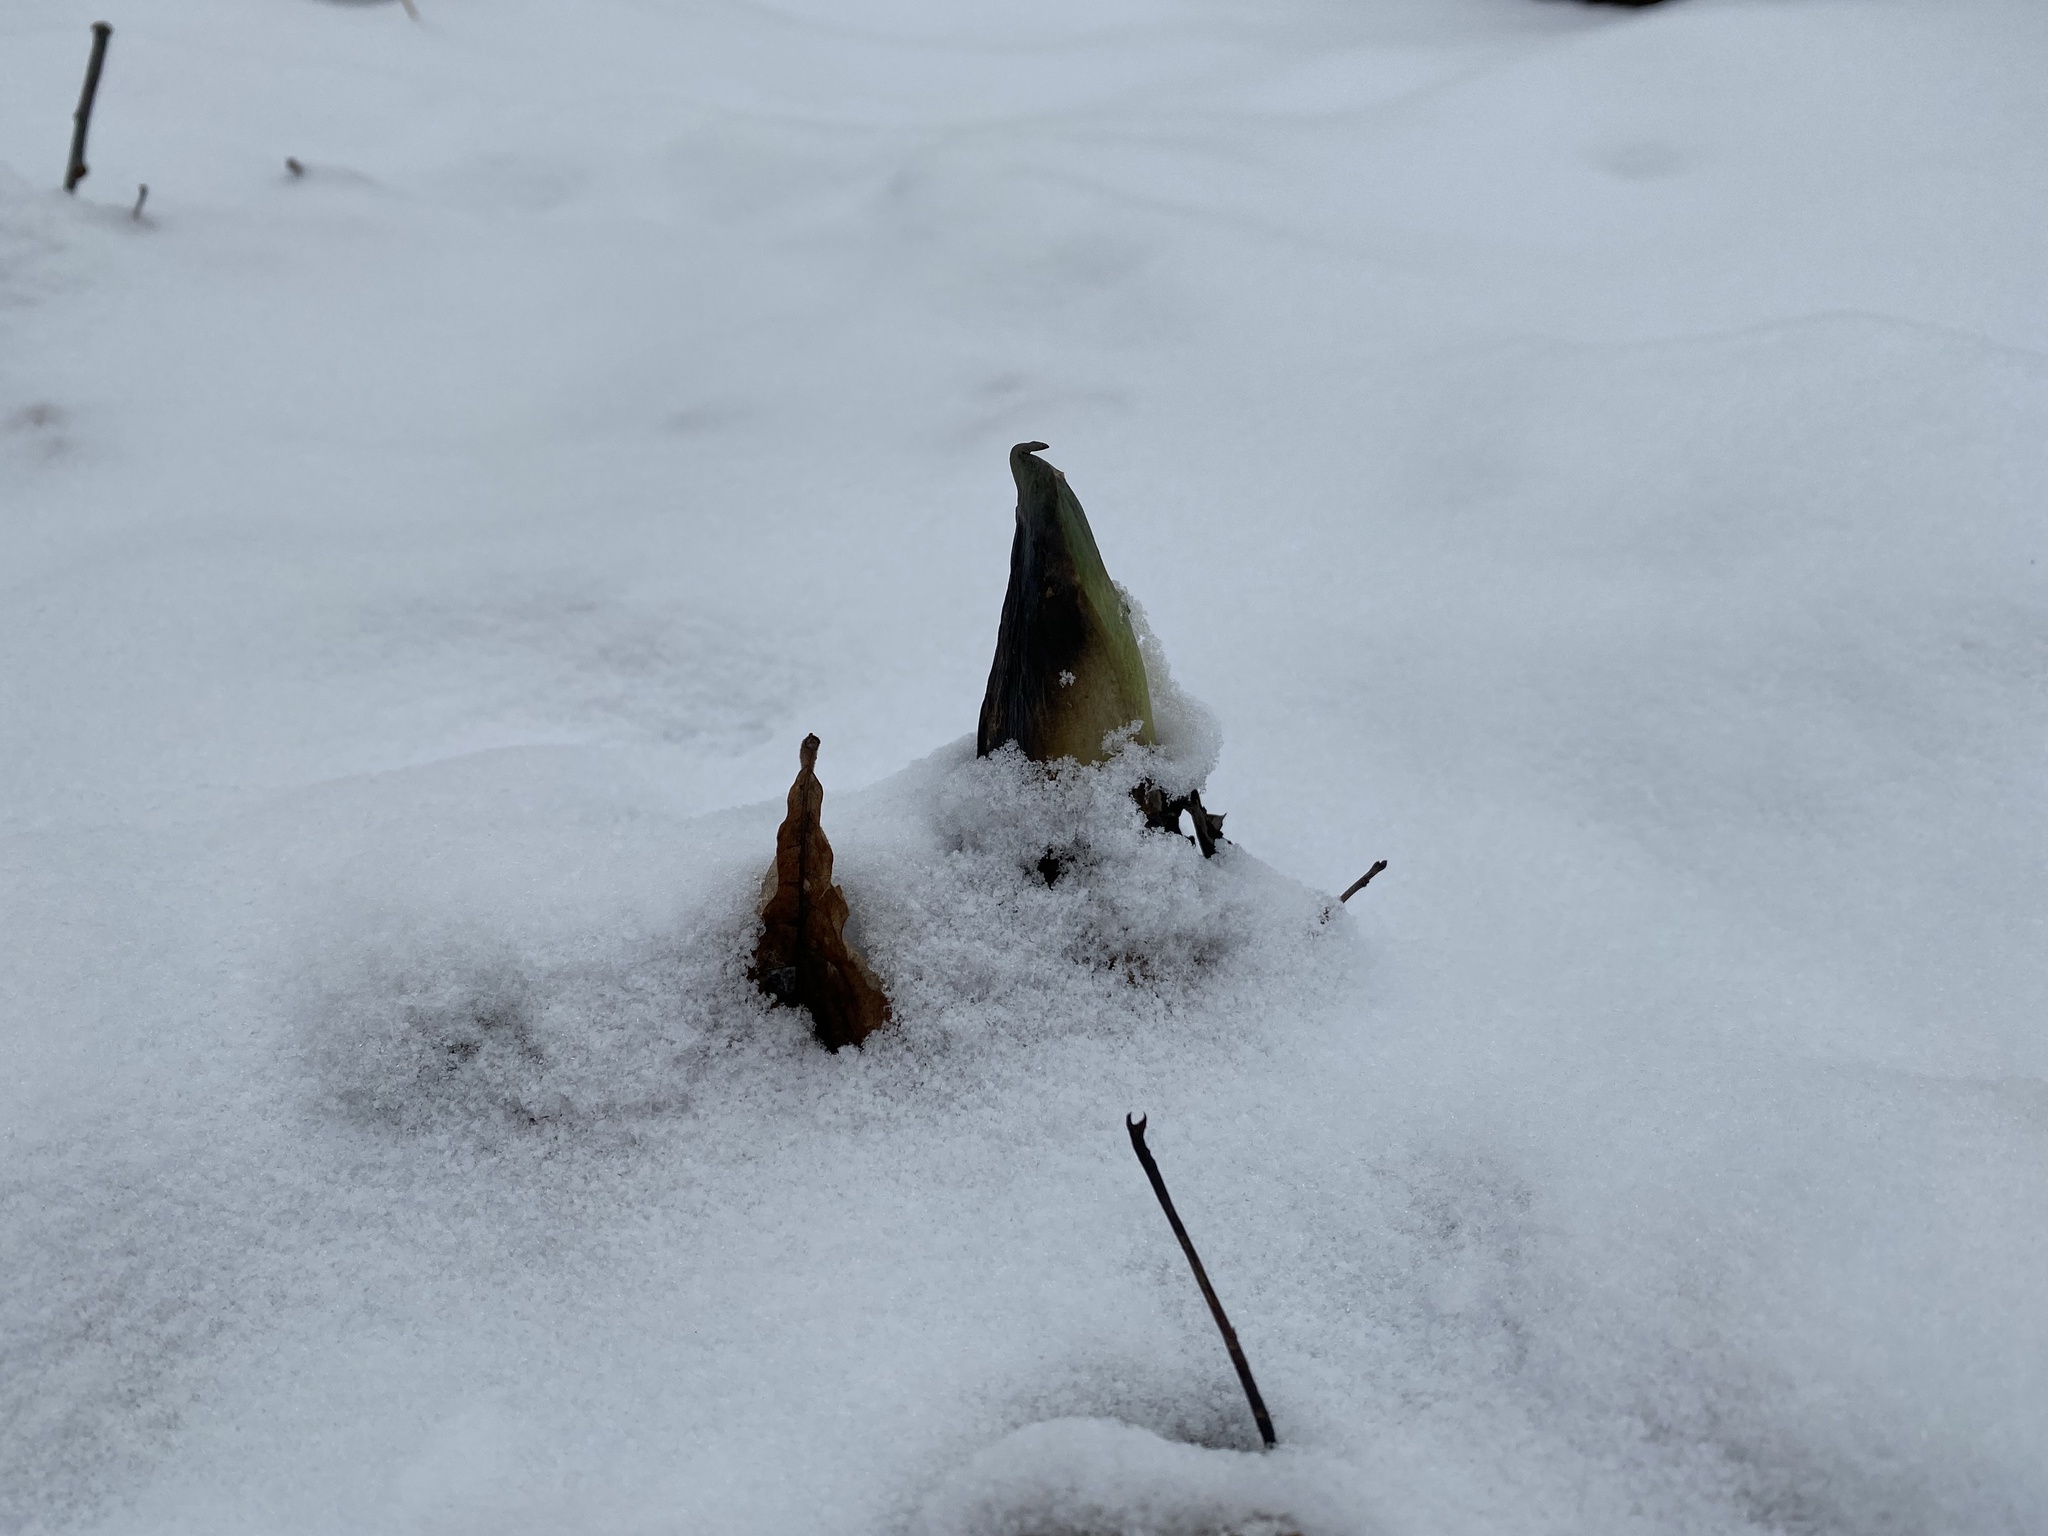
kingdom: Plantae
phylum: Tracheophyta
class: Liliopsida
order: Alismatales
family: Araceae
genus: Symplocarpus
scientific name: Symplocarpus foetidus
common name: Eastern skunk cabbage
